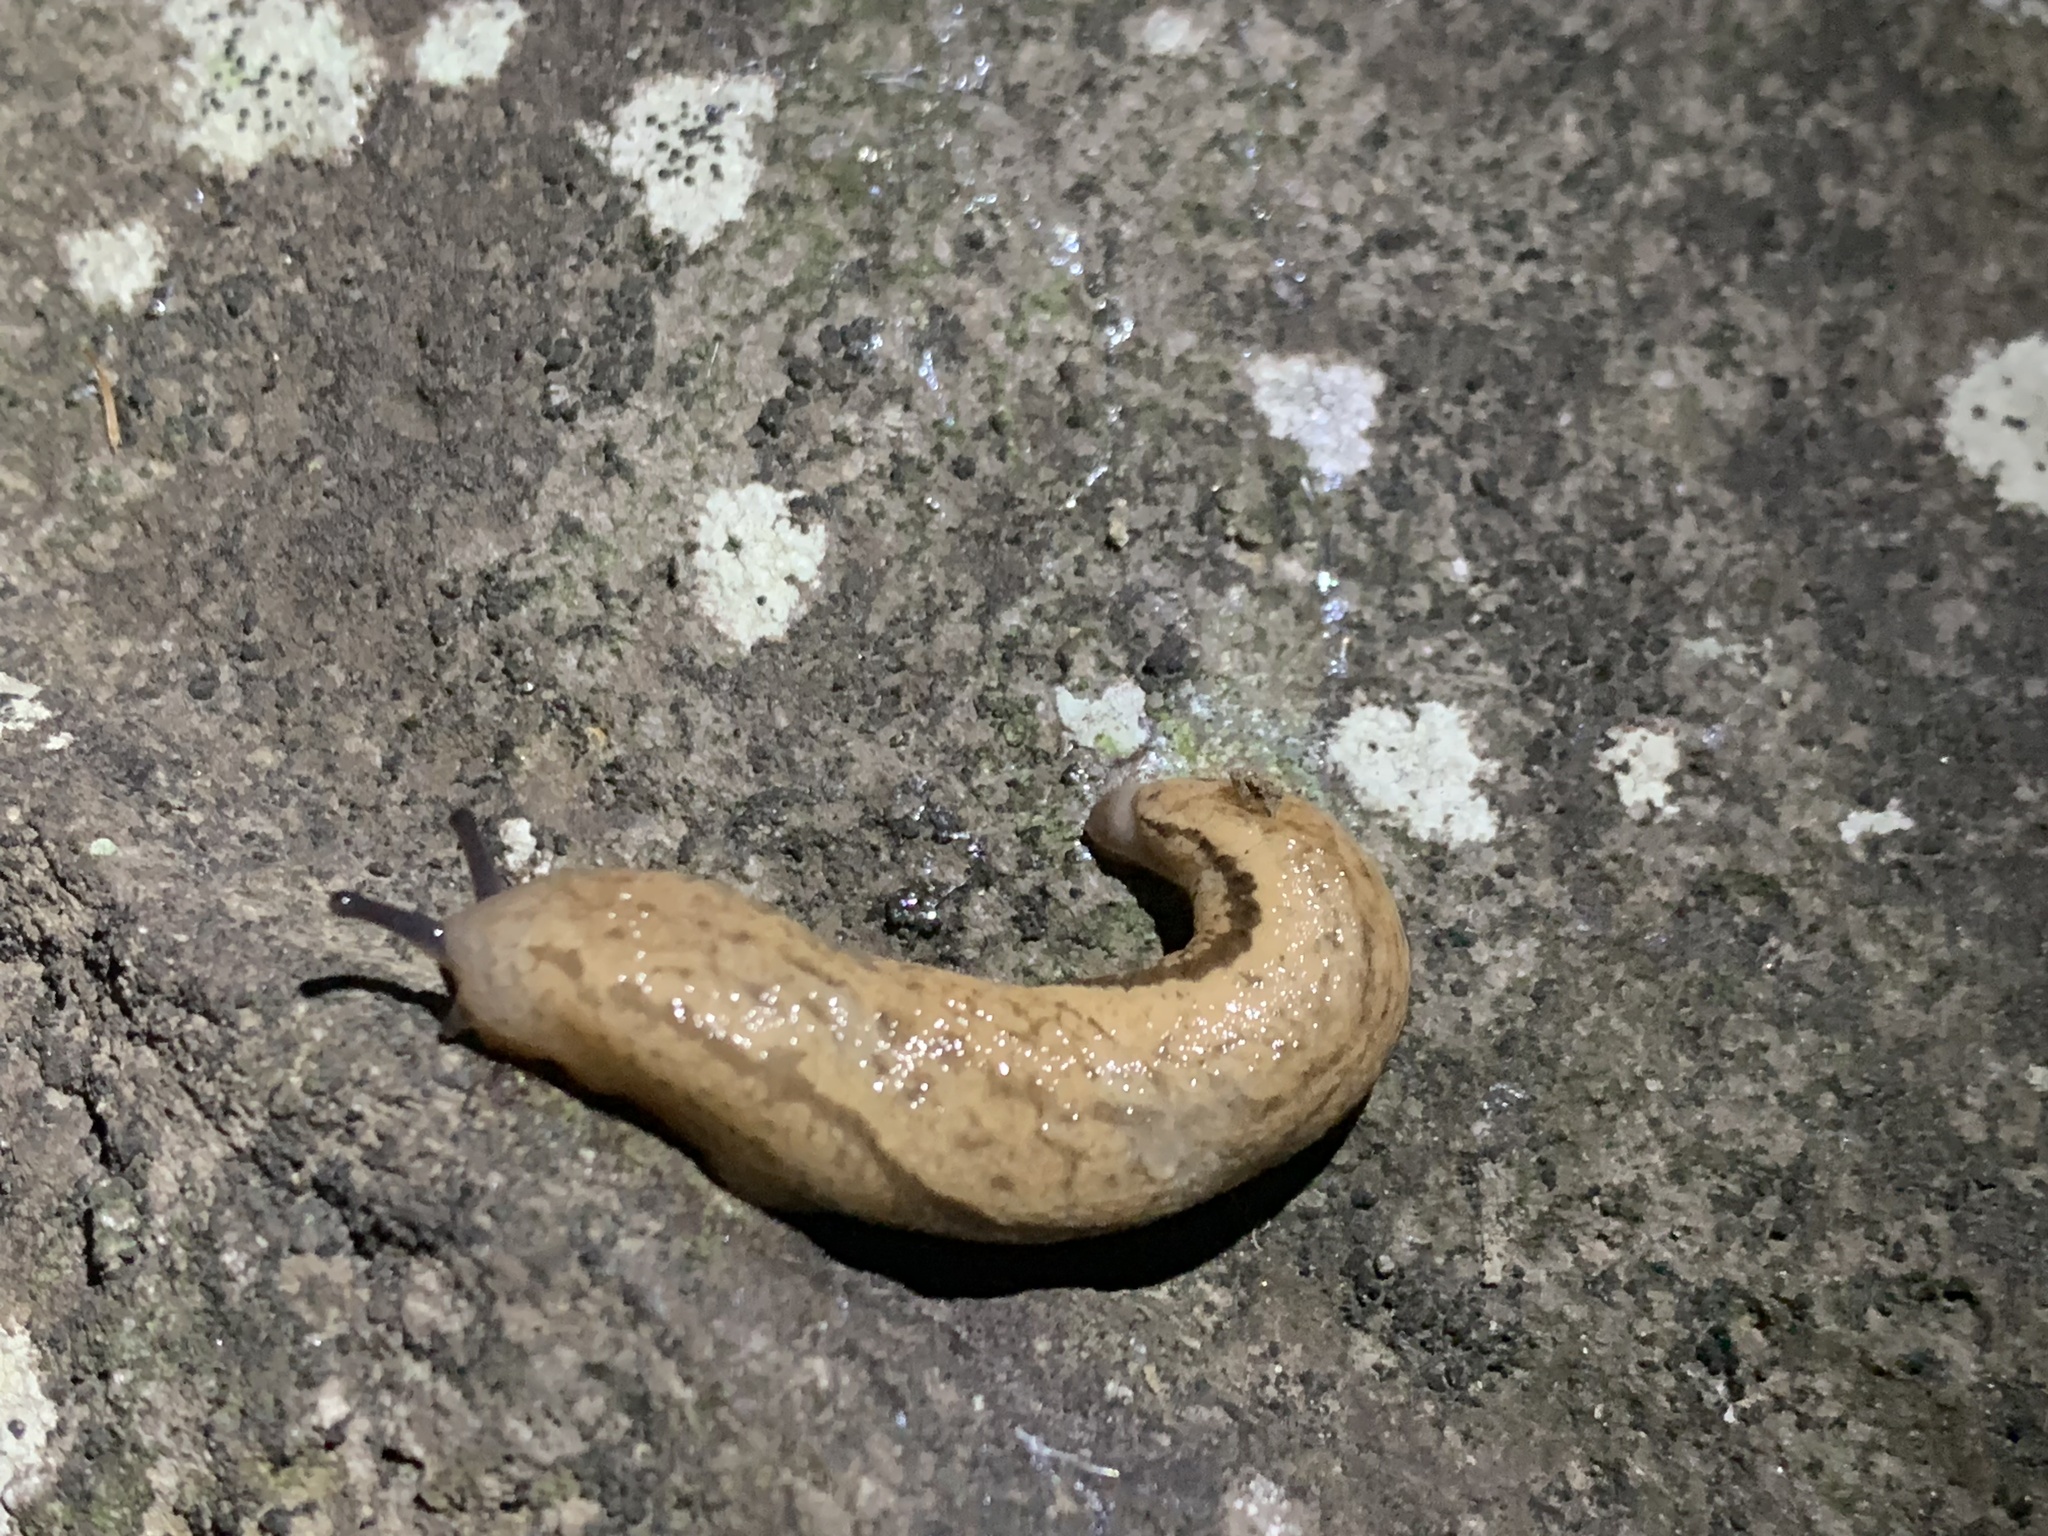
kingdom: Animalia
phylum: Mollusca
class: Gastropoda
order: Stylommatophora
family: Philomycidae
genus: Meghimatium
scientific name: Meghimatium bilineatum
